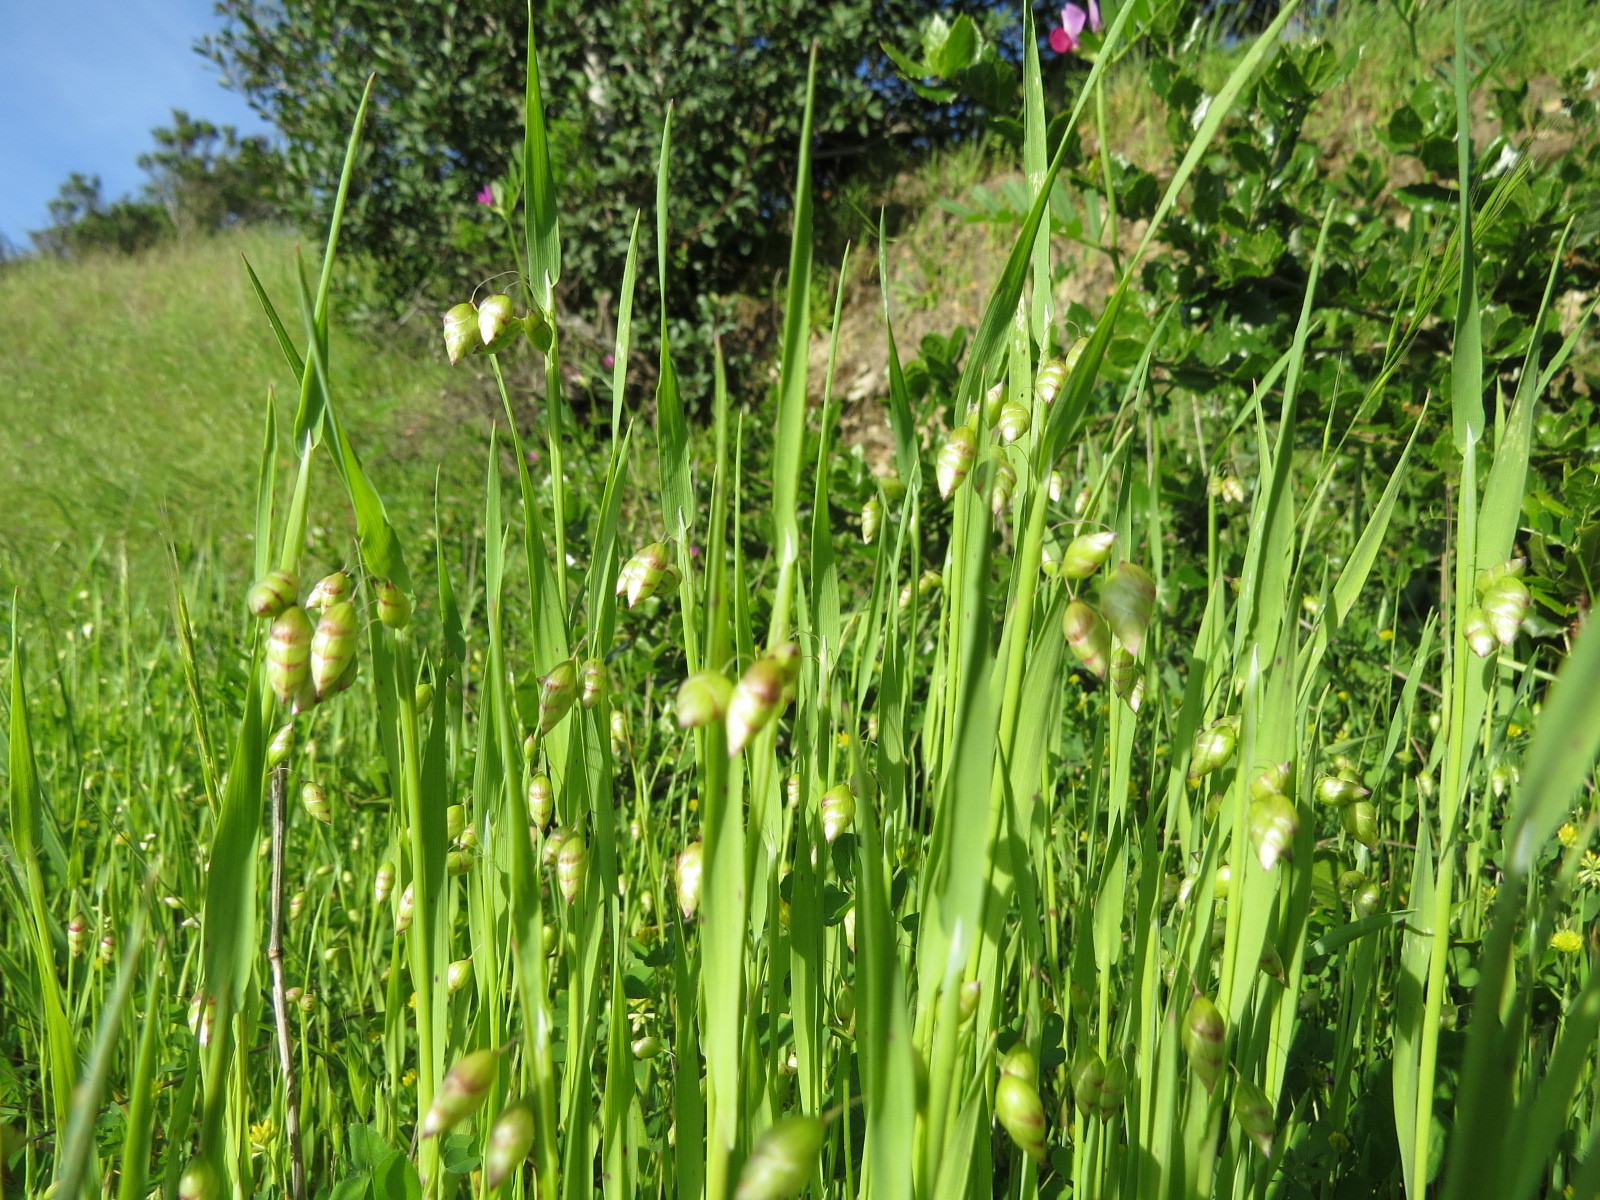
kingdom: Plantae
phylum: Tracheophyta
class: Liliopsida
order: Poales
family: Poaceae
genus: Briza
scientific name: Briza maxima
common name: Big quakinggrass
